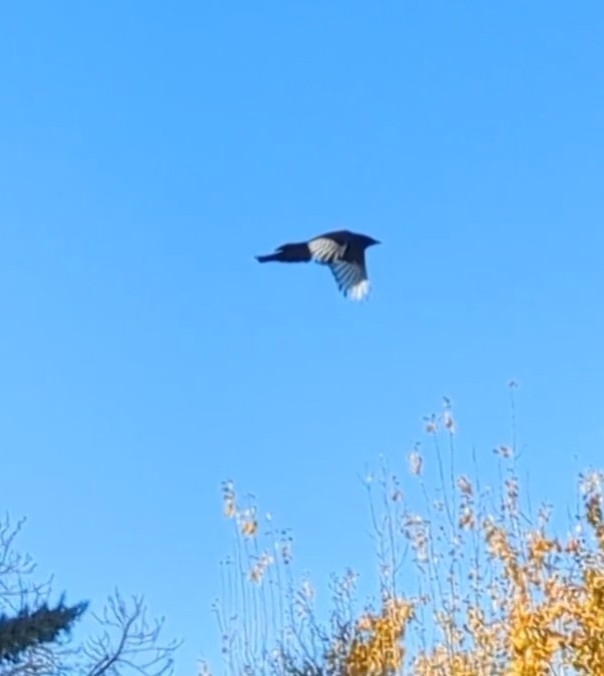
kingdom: Animalia
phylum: Chordata
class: Aves
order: Passeriformes
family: Corvidae
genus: Pica
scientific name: Pica pica
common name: Eurasian magpie
